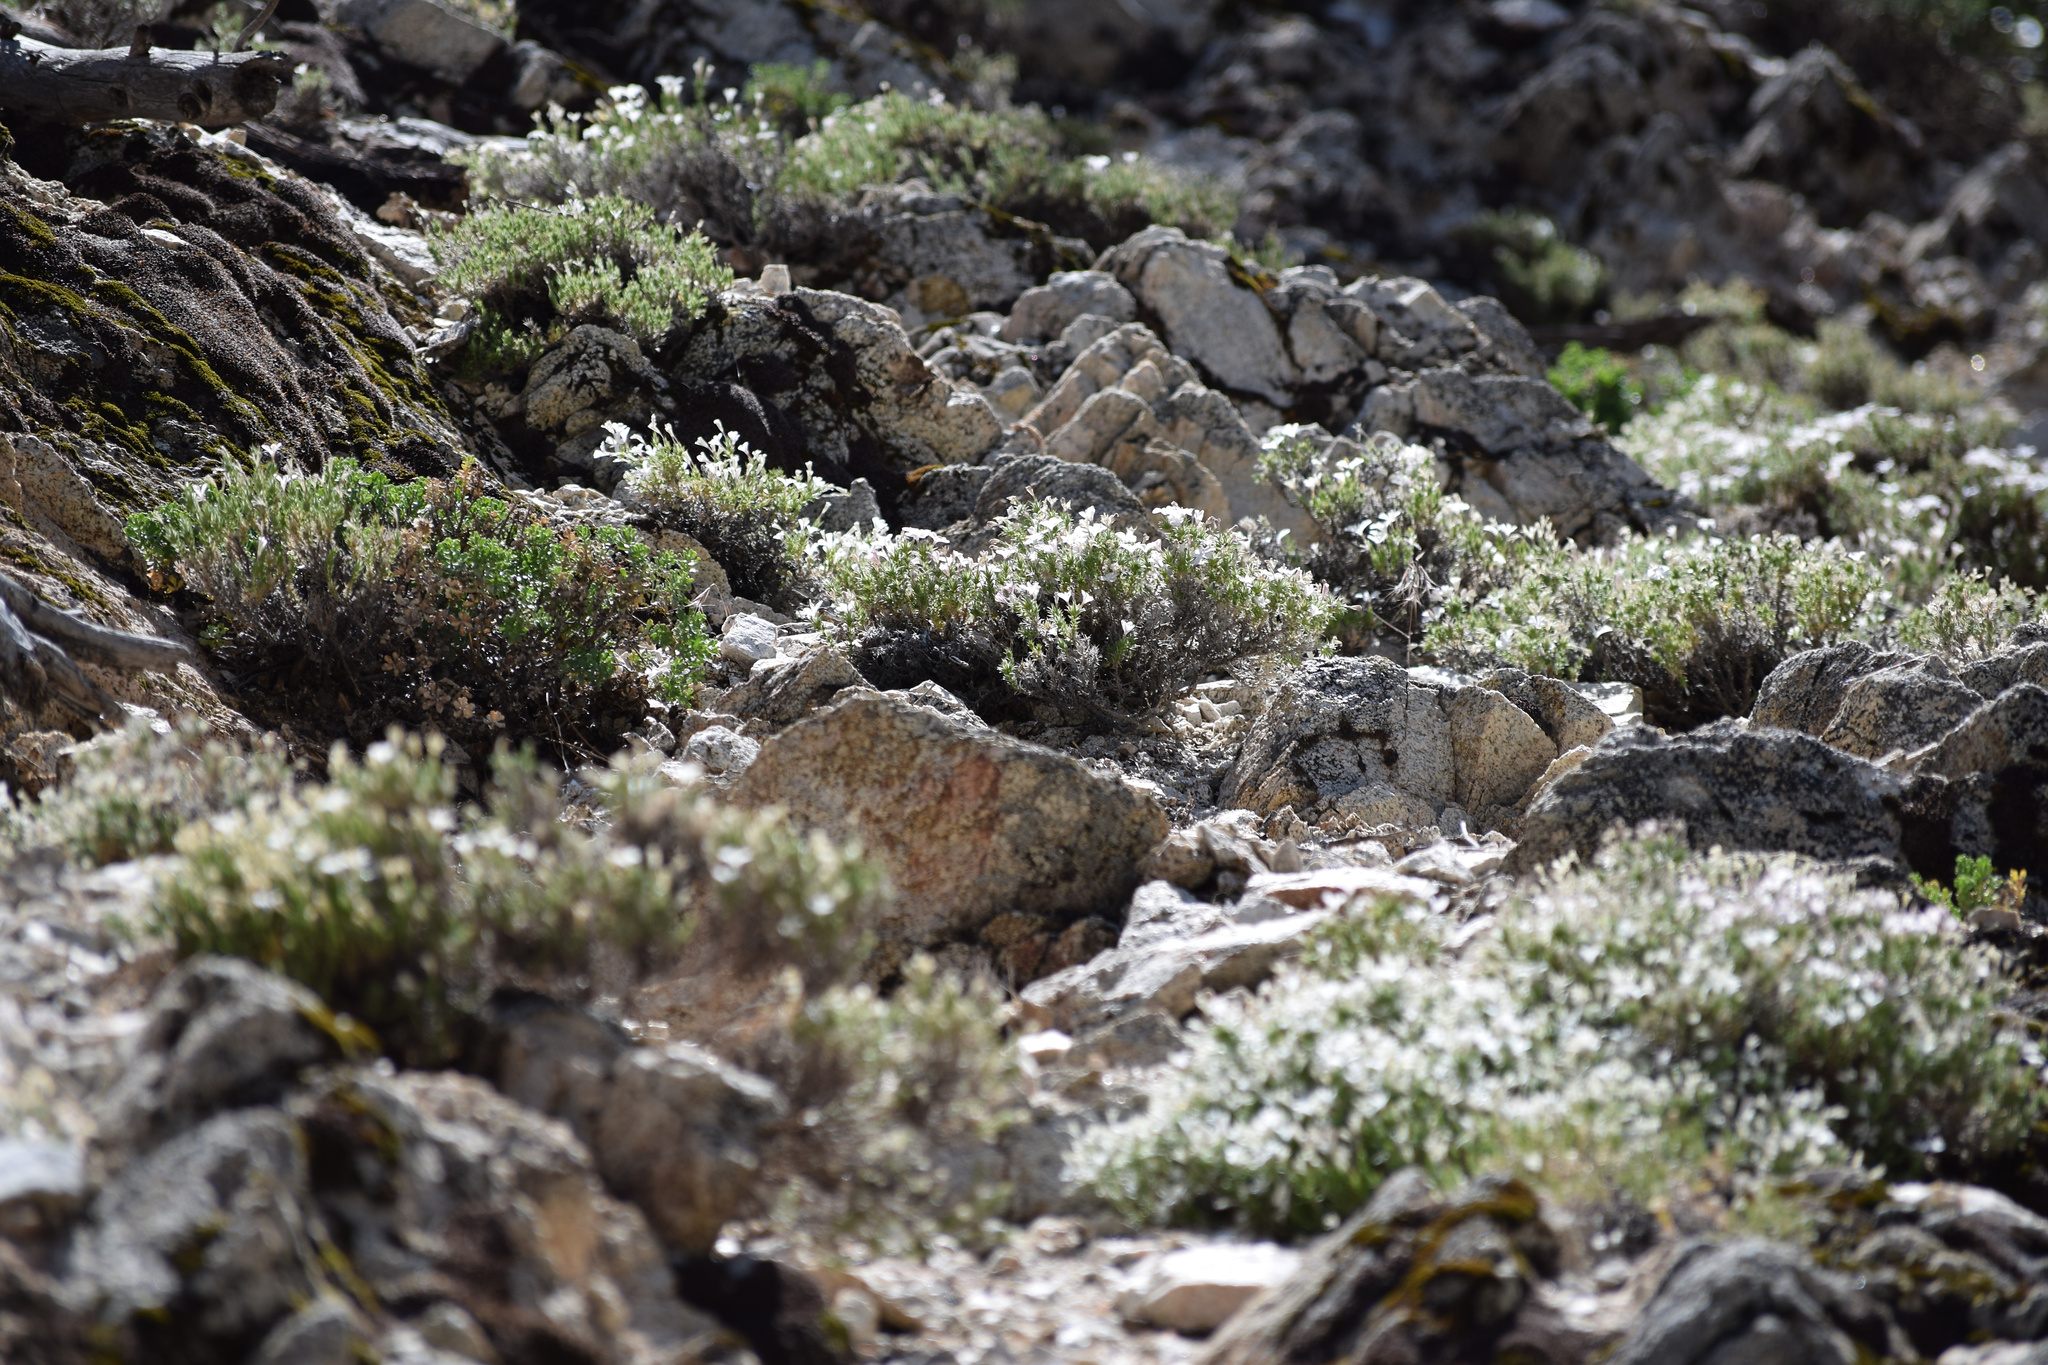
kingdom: Plantae
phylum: Tracheophyta
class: Magnoliopsida
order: Ericales
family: Polemoniaceae
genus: Linanthus
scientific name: Linanthus pungens
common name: Granite prickly phlox
